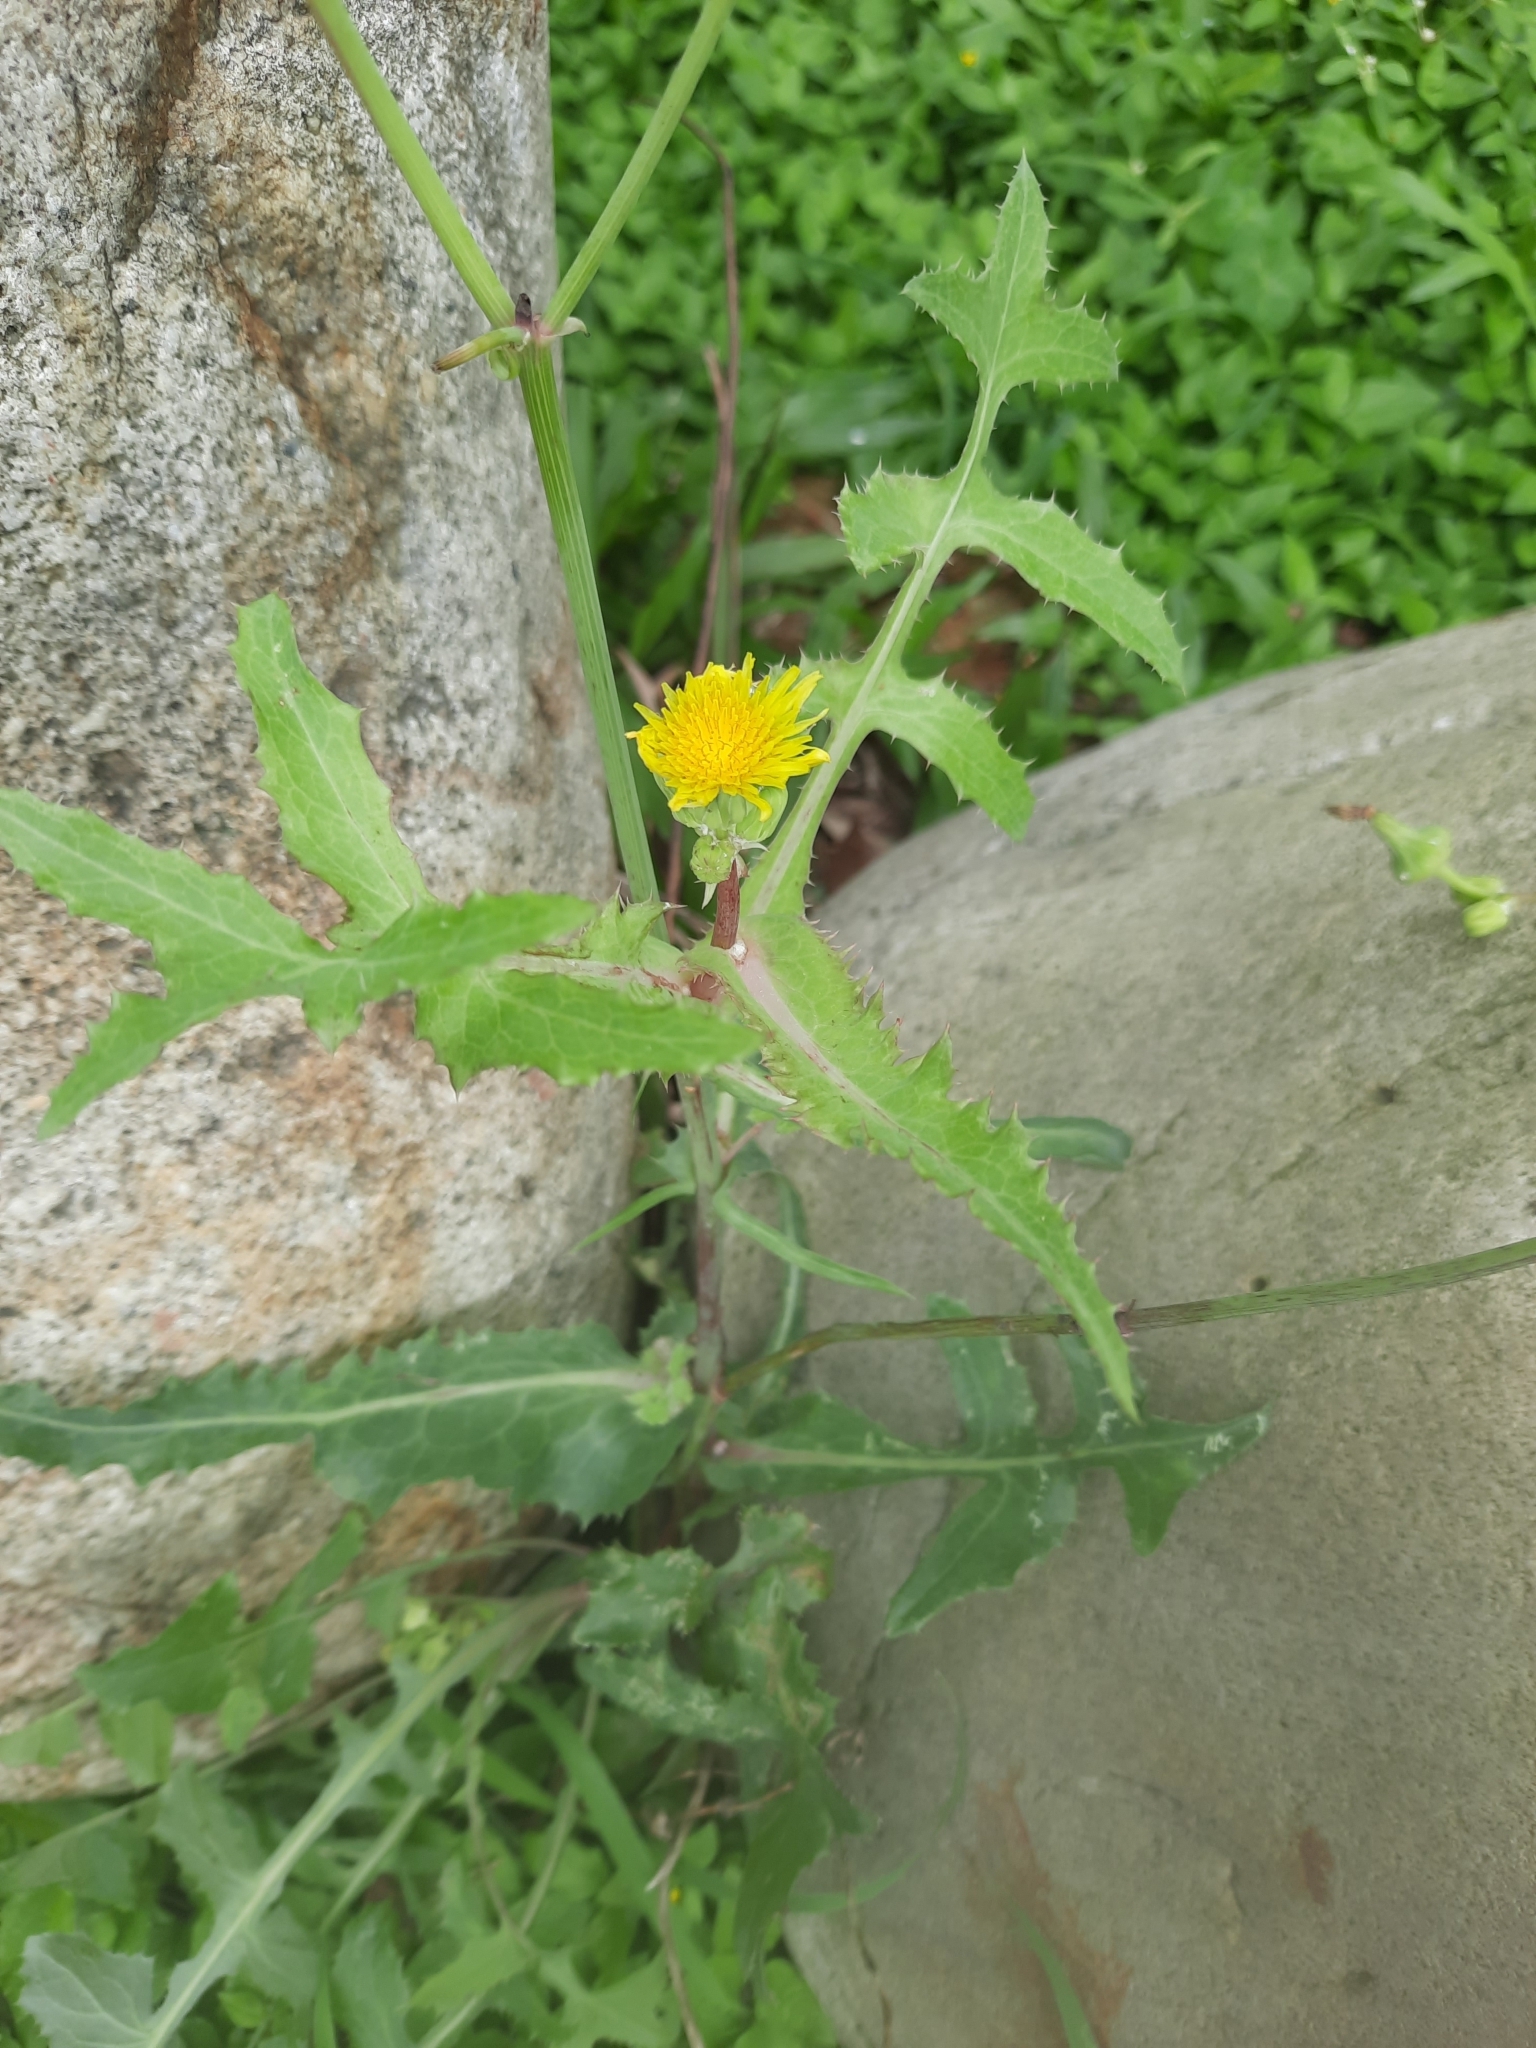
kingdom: Plantae
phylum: Tracheophyta
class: Magnoliopsida
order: Asterales
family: Asteraceae
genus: Sonchus
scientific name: Sonchus oleraceus
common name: Common sowthistle
